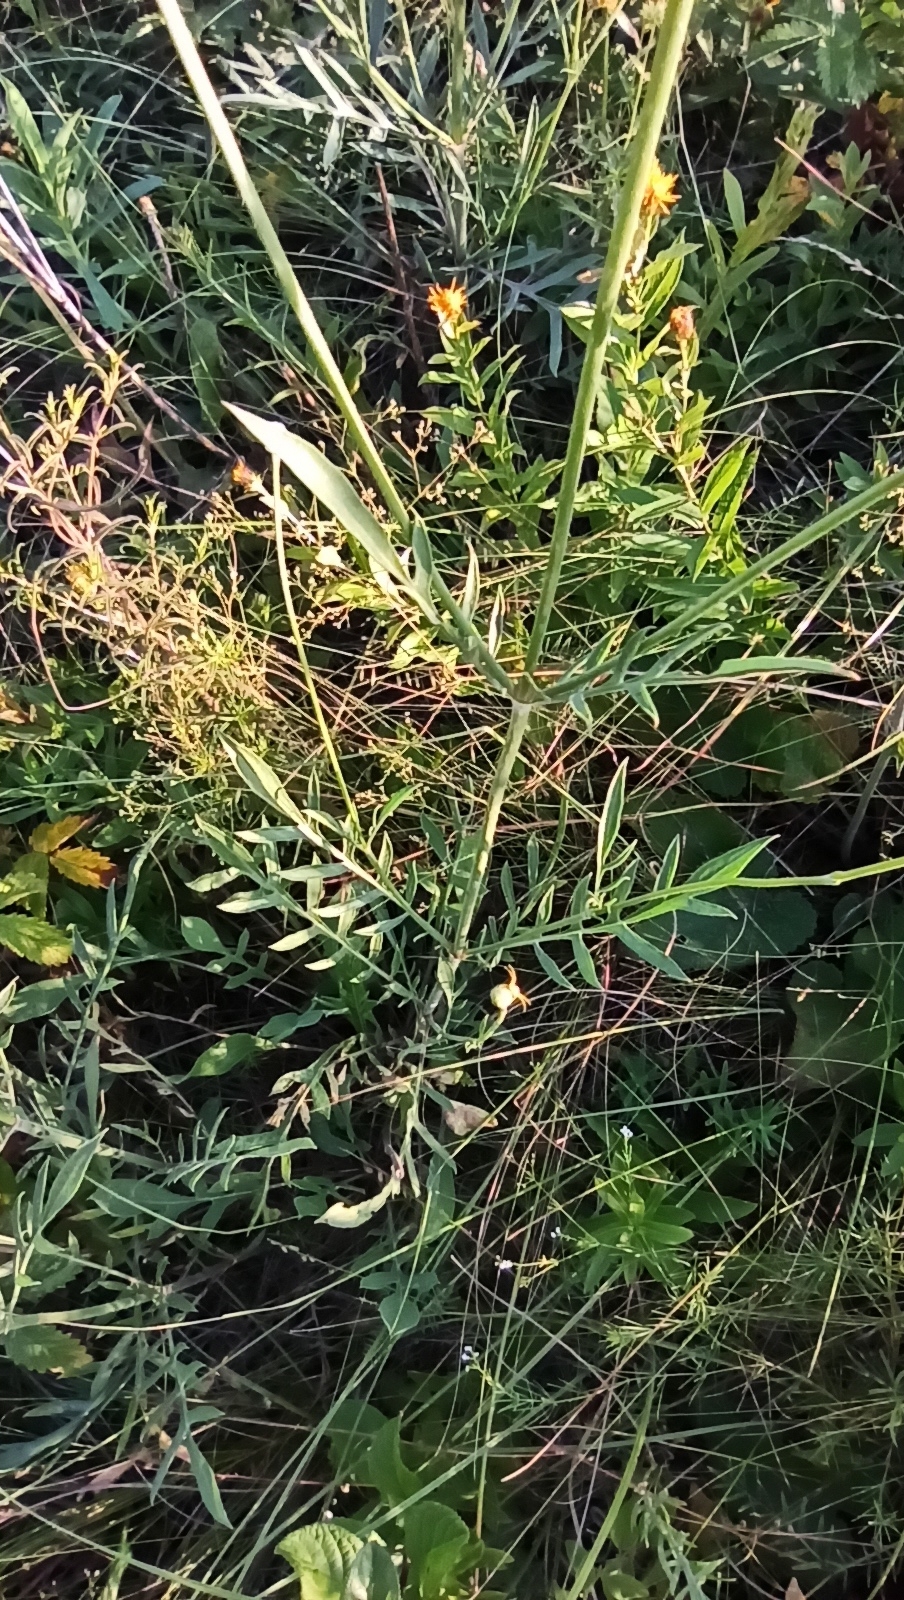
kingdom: Plantae
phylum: Tracheophyta
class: Magnoliopsida
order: Dipsacales
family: Caprifoliaceae
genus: Cephalaria
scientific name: Cephalaria uralensis
